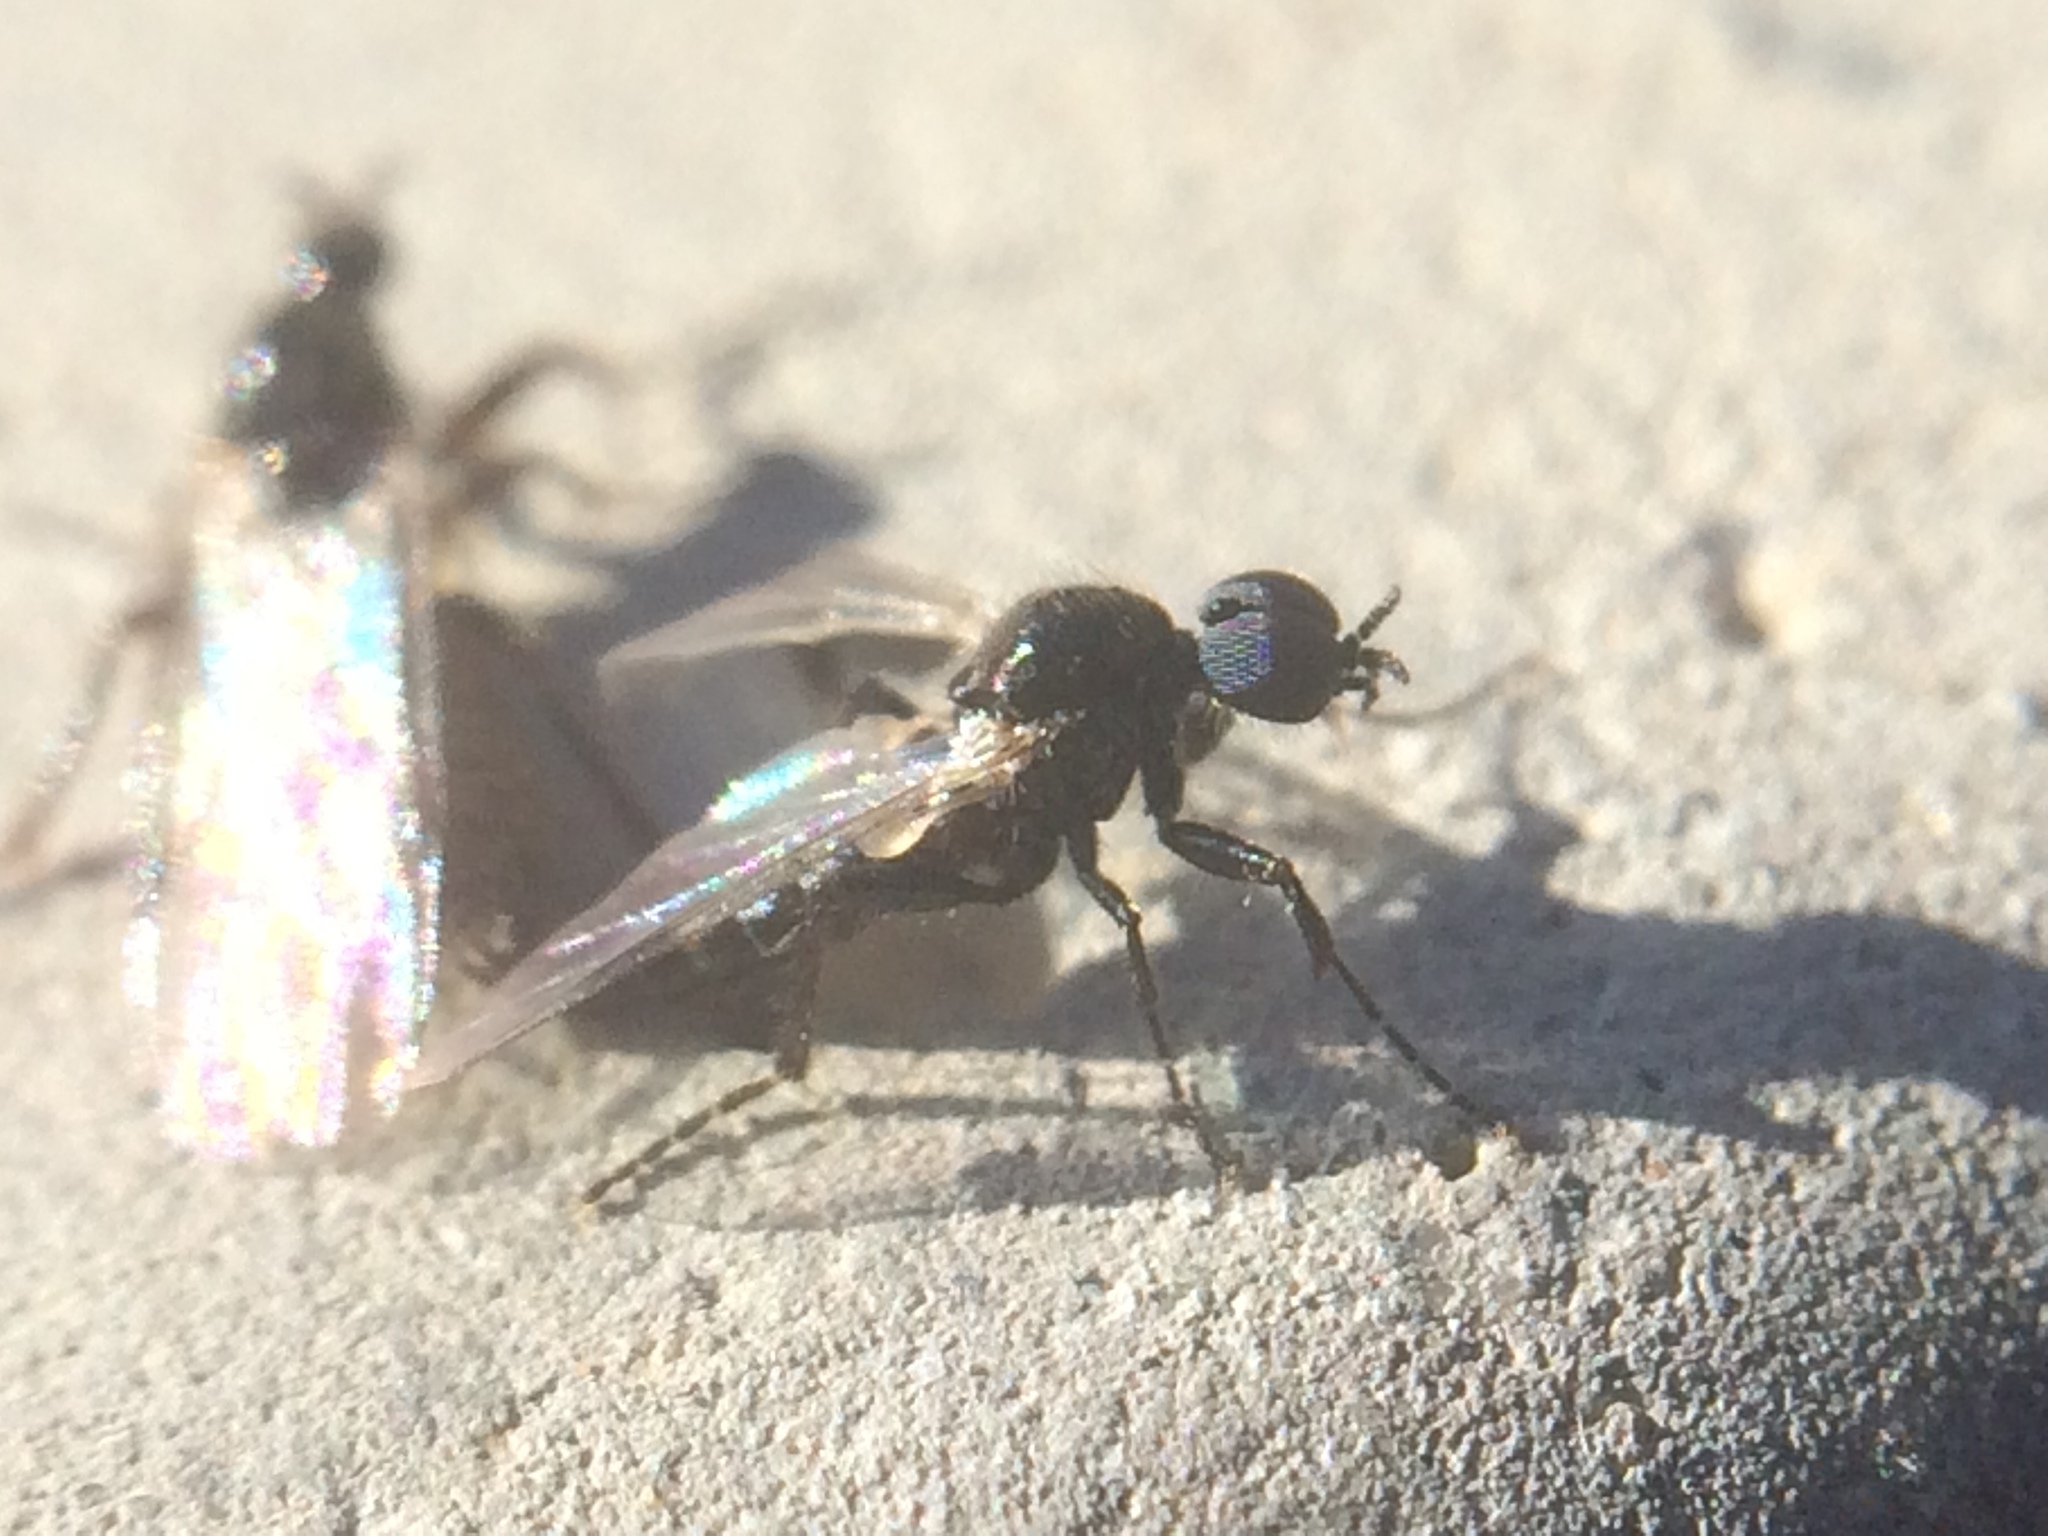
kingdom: Animalia
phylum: Arthropoda
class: Insecta
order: Diptera
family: Bibionidae
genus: Bibiodes
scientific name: Bibiodes halteralis
